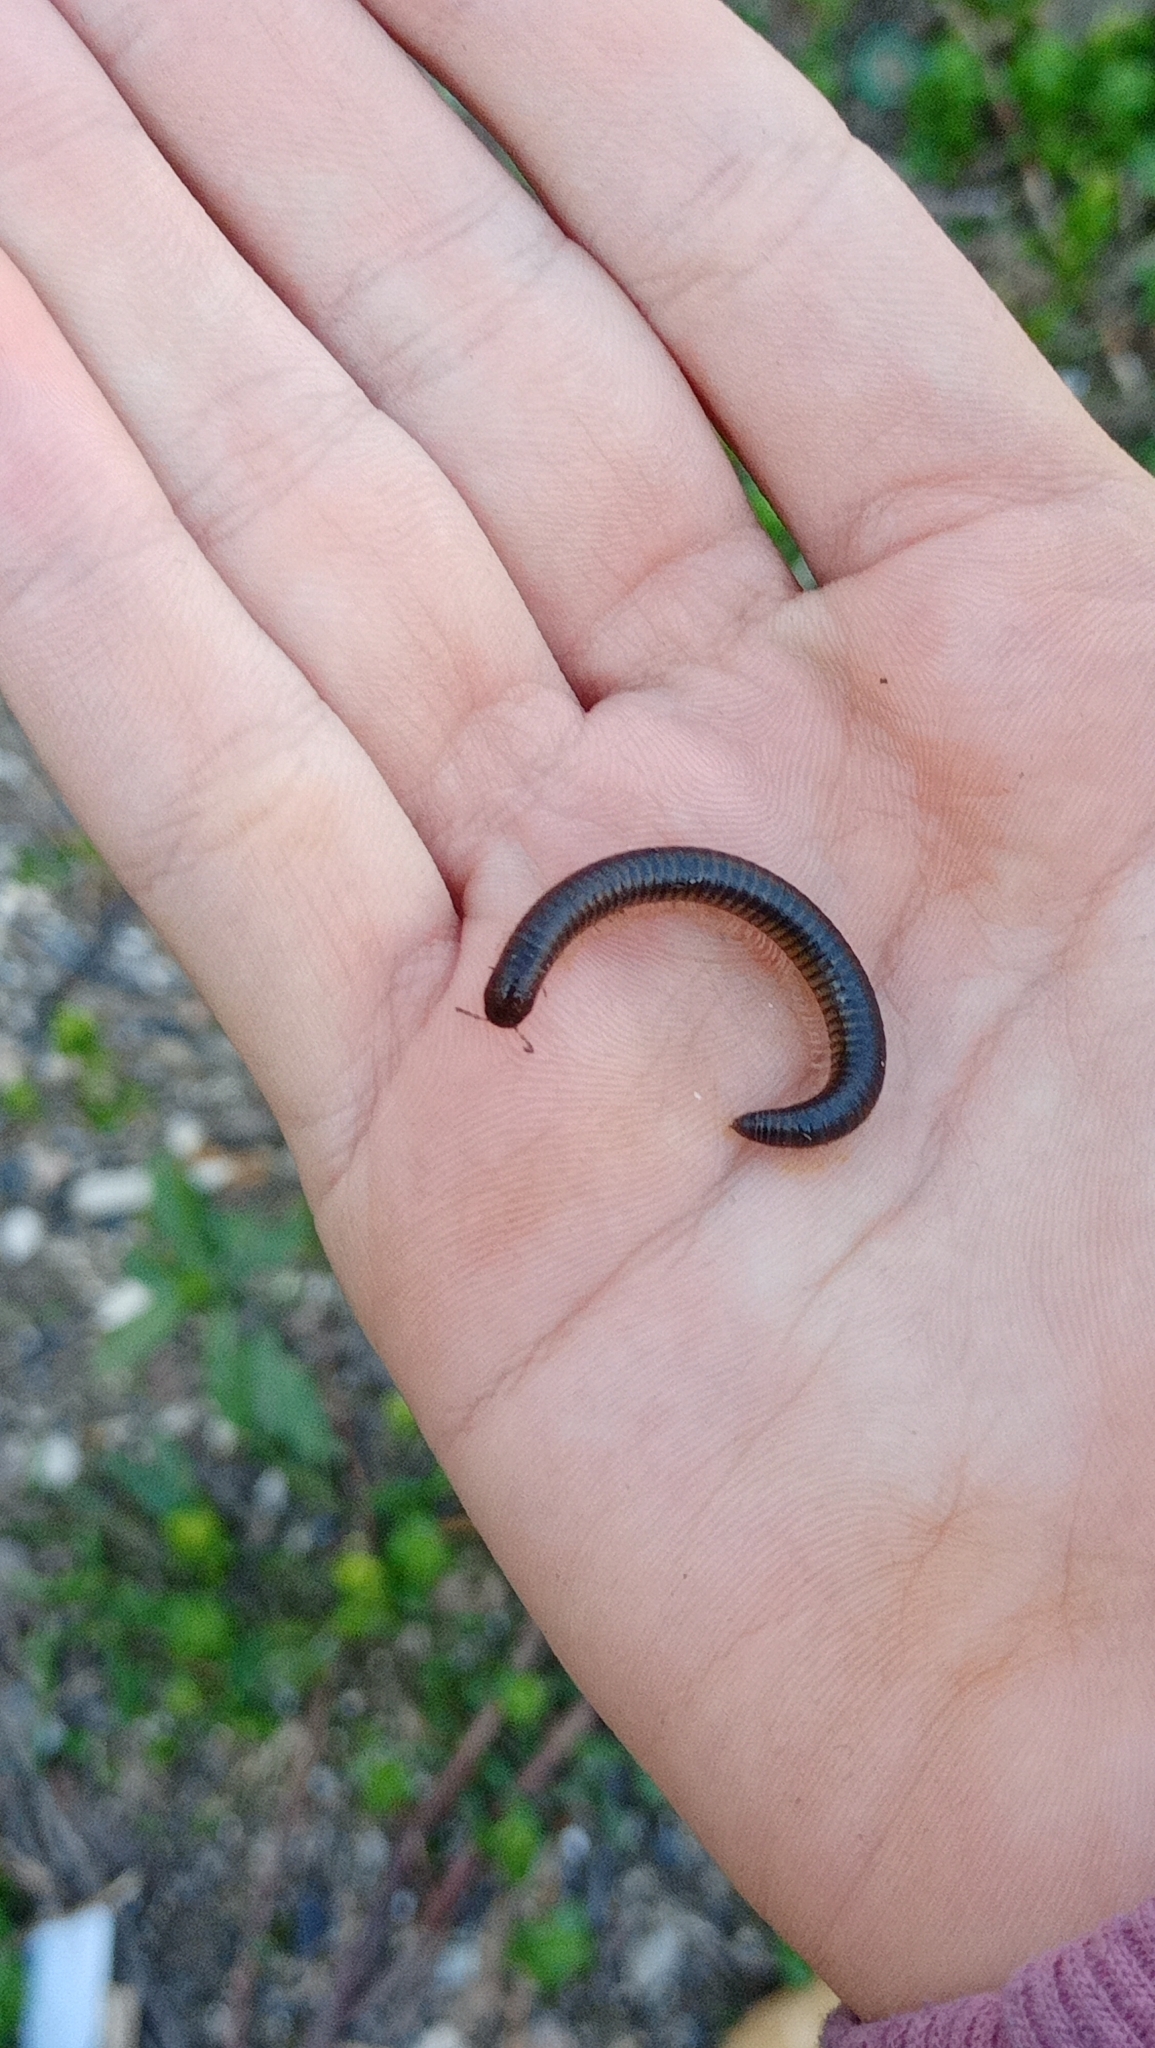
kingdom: Animalia
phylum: Arthropoda
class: Diplopoda
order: Julida
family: Julidae
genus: Pachyiulus
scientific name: Pachyiulus flavipes
